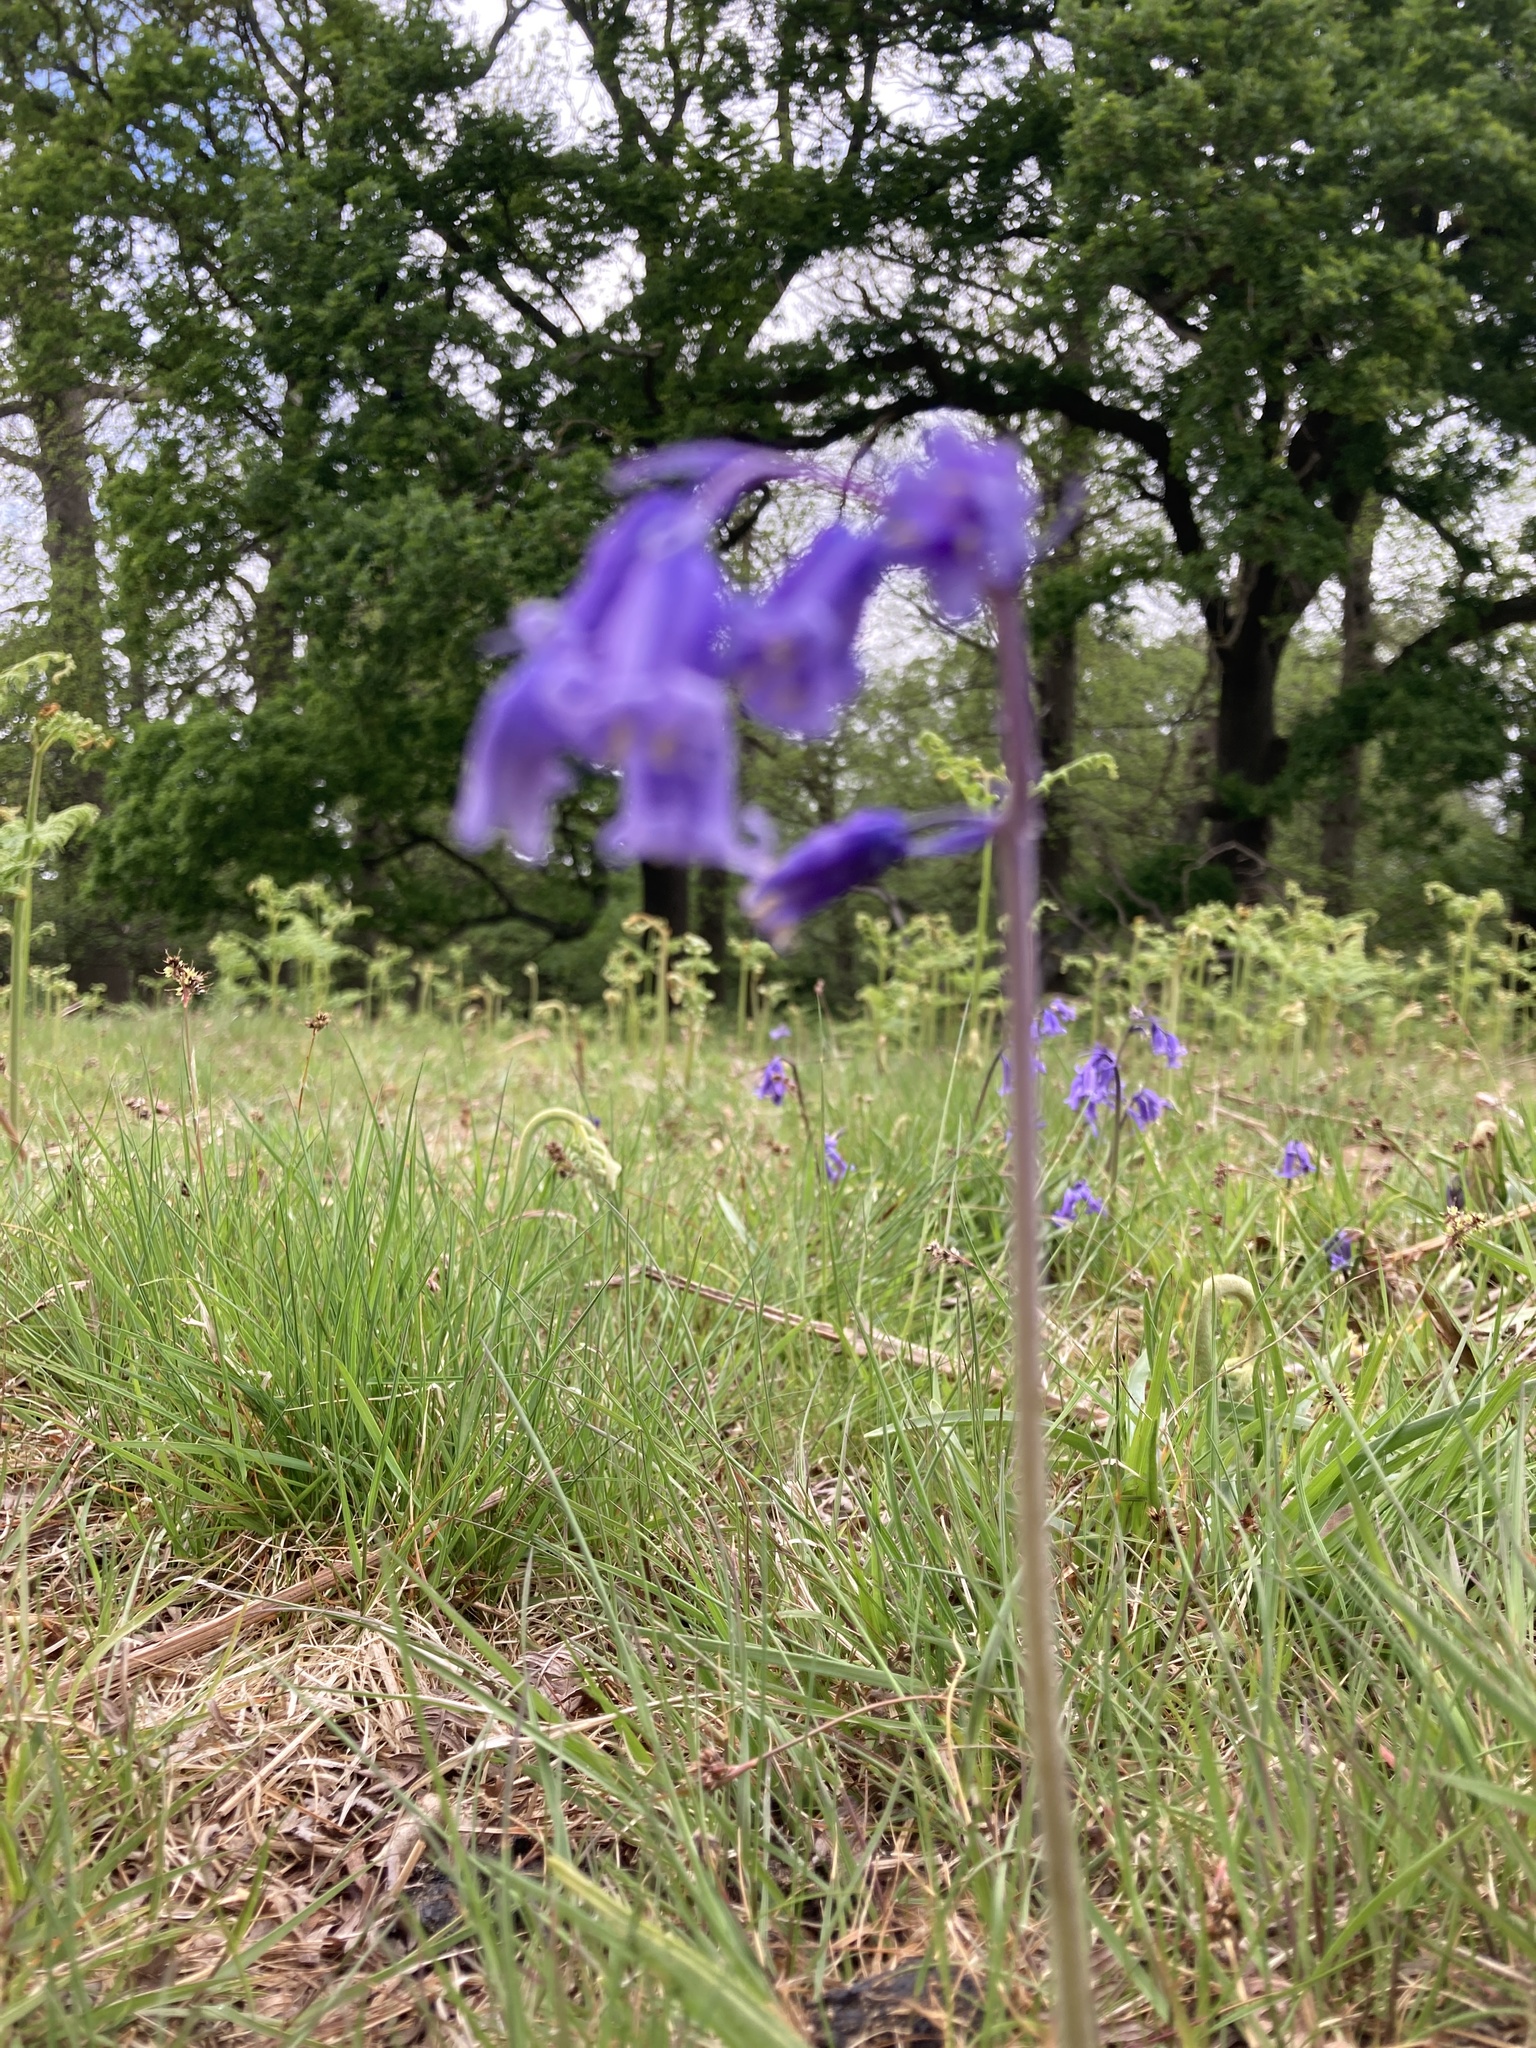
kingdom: Plantae
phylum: Tracheophyta
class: Liliopsida
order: Asparagales
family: Asparagaceae
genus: Hyacinthoides
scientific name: Hyacinthoides non-scripta
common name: Bluebell
